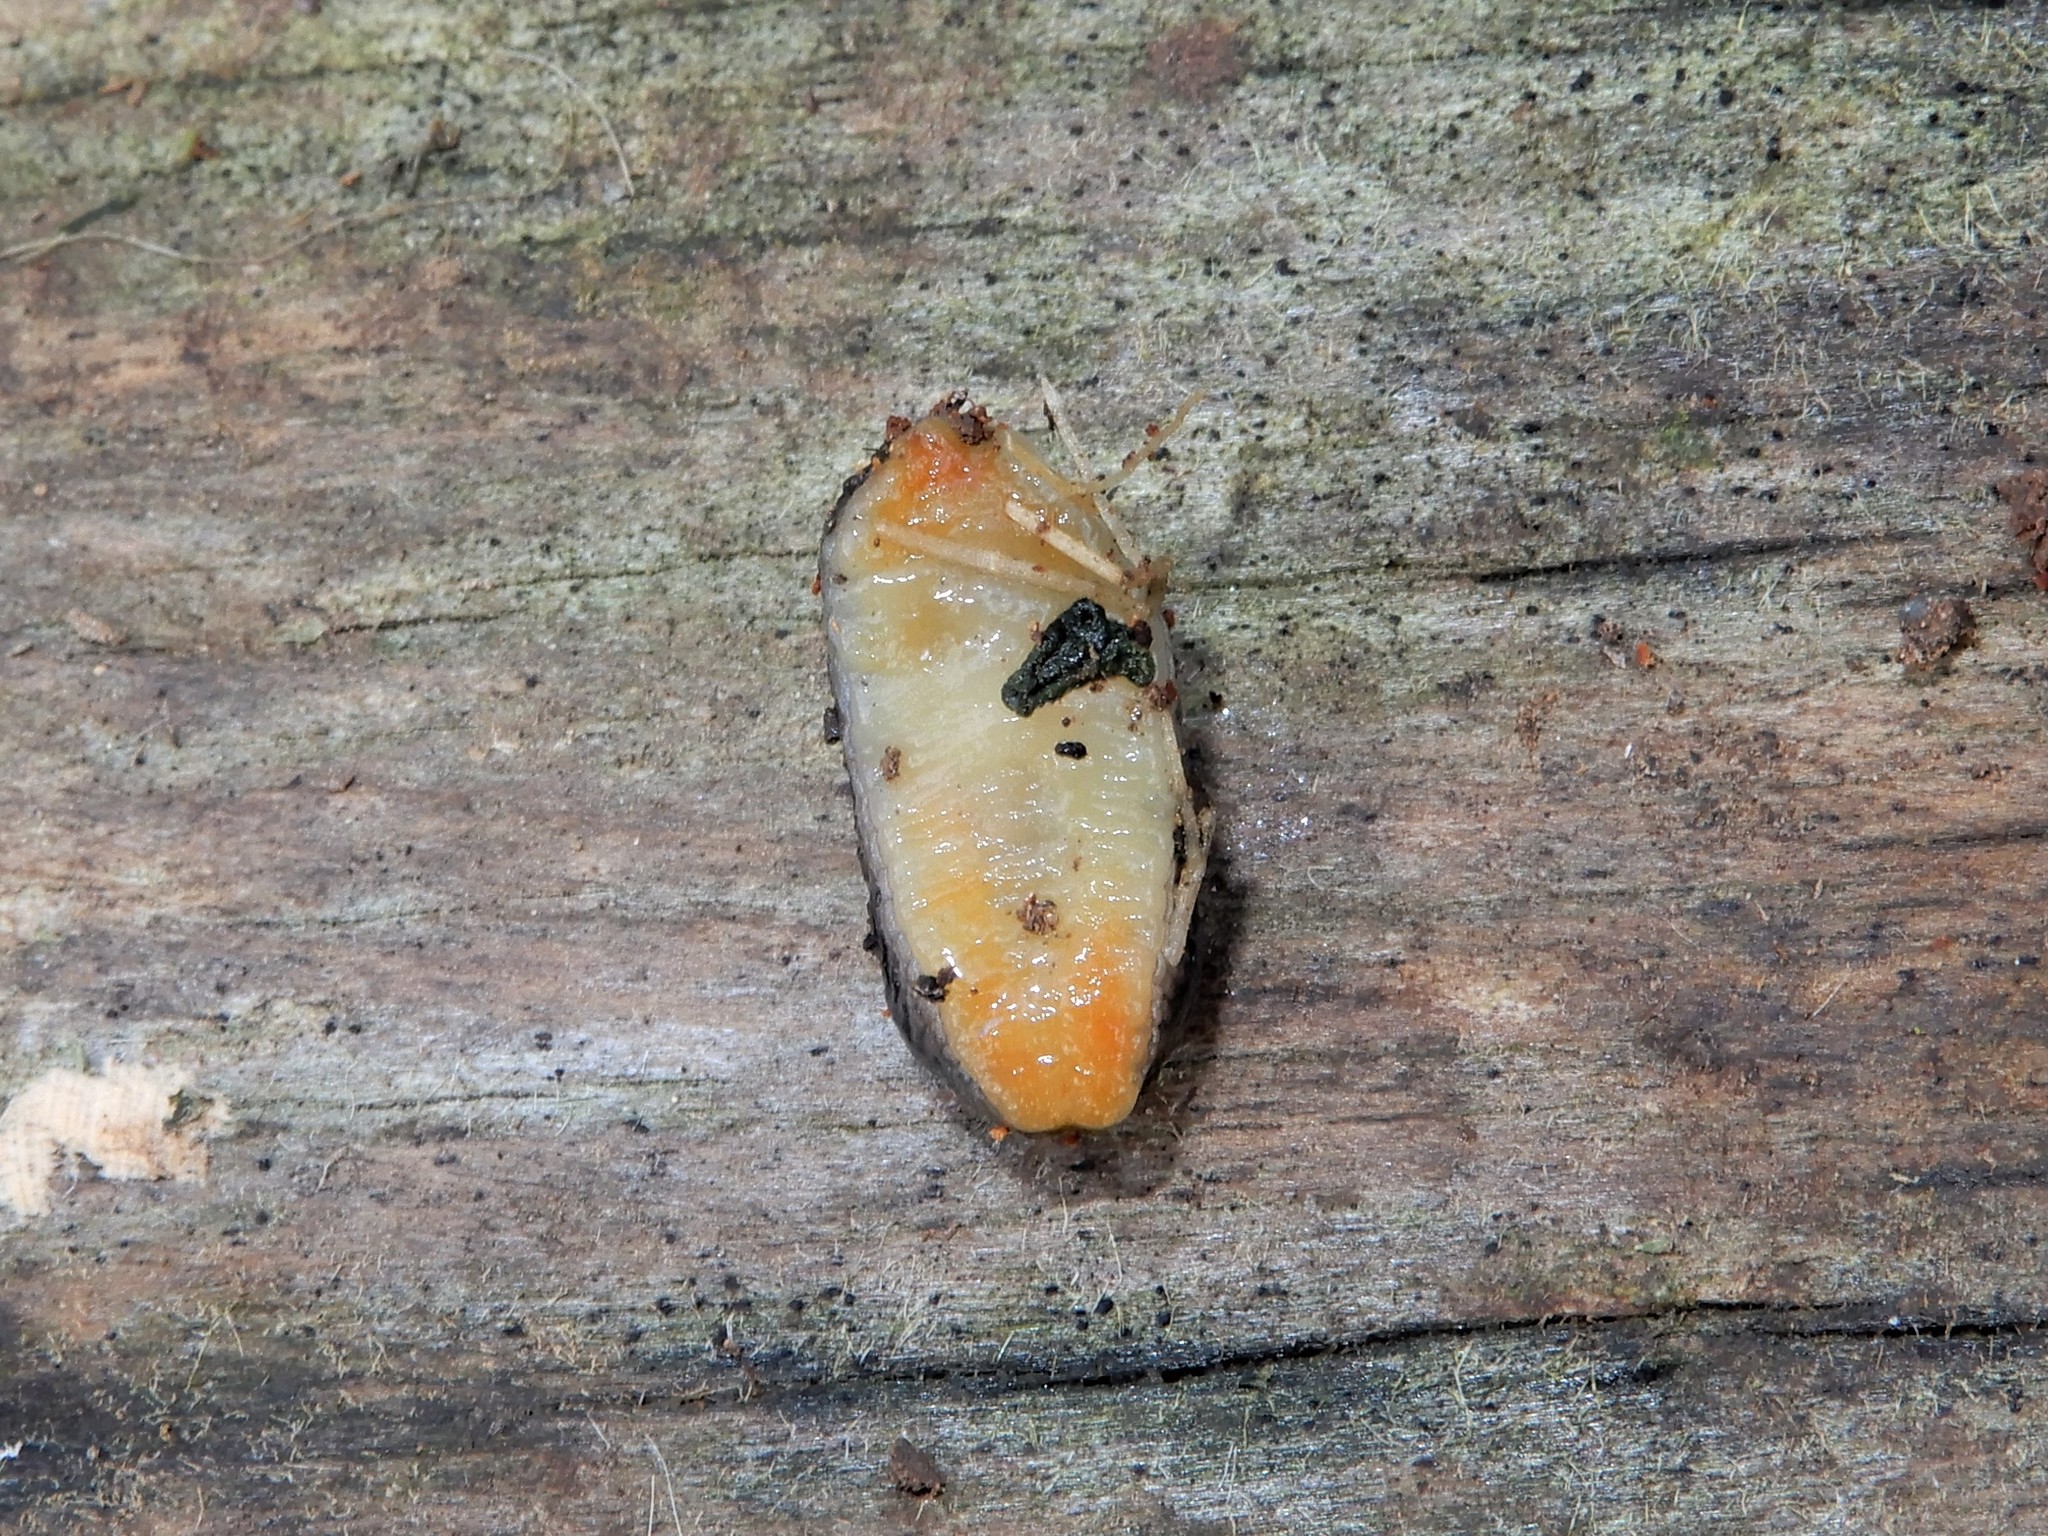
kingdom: Animalia
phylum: Mollusca
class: Gastropoda
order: Stylommatophora
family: Arionidae
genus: Kobeltia
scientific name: Kobeltia
